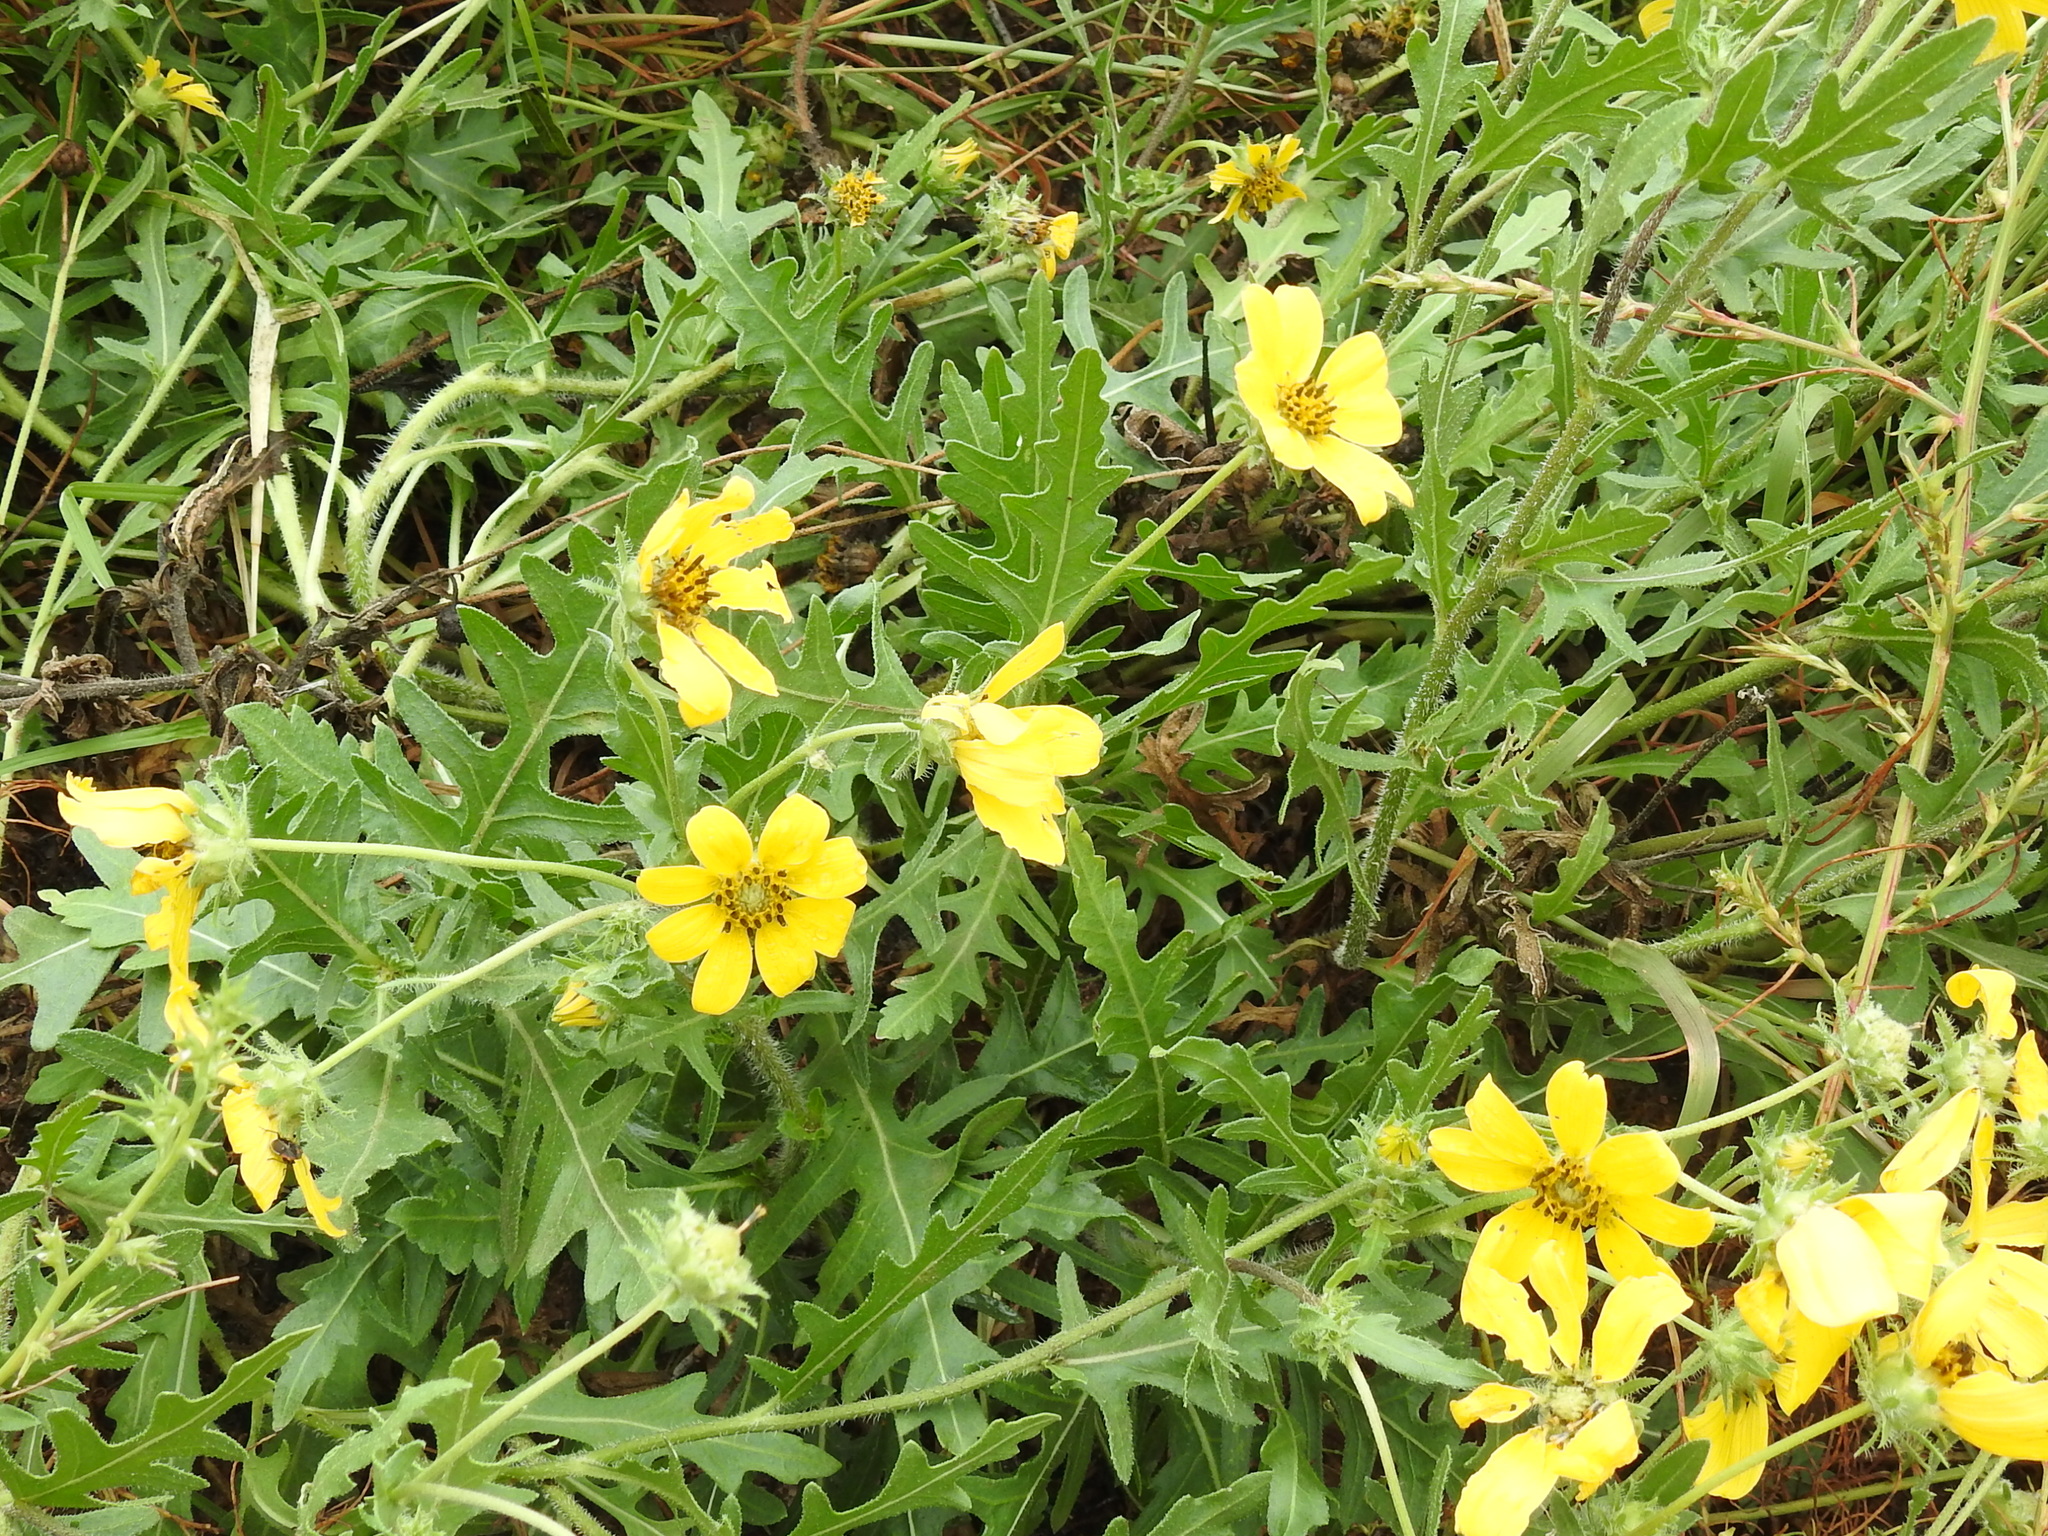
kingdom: Plantae
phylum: Tracheophyta
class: Magnoliopsida
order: Asterales
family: Asteraceae
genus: Engelmannia
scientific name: Engelmannia peristenia
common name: Engelmann's daisy
